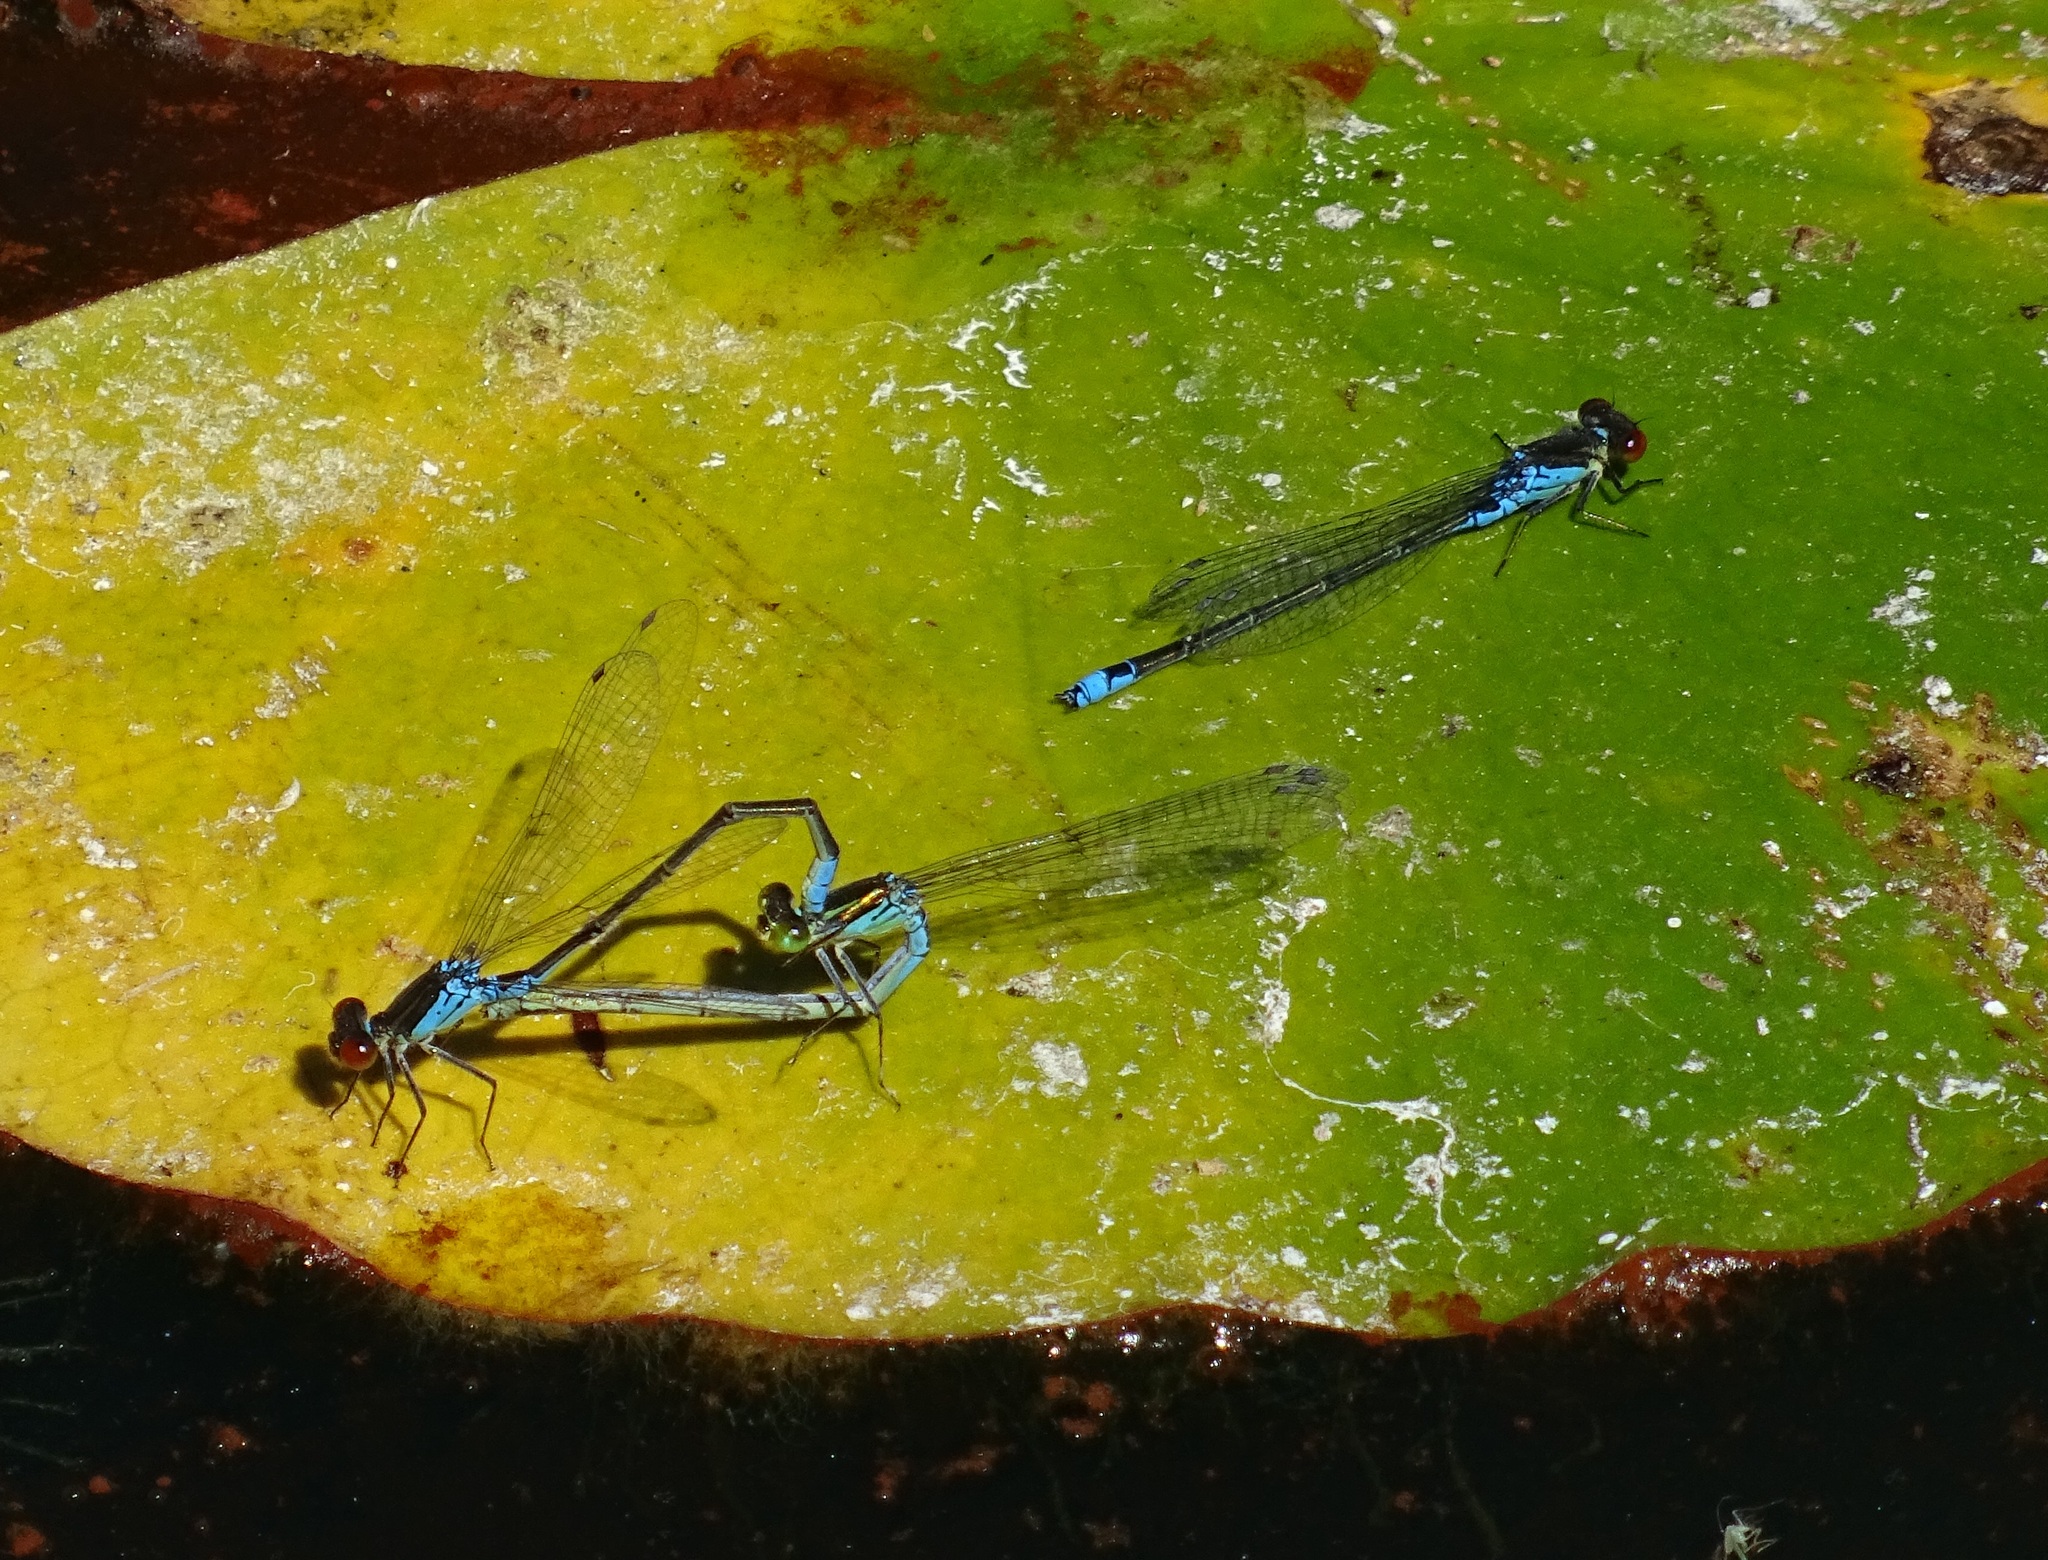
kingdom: Animalia
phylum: Arthropoda
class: Insecta
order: Odonata
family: Coenagrionidae
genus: Erythromma
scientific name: Erythromma viridulum
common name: Small red-eyed damselfly
